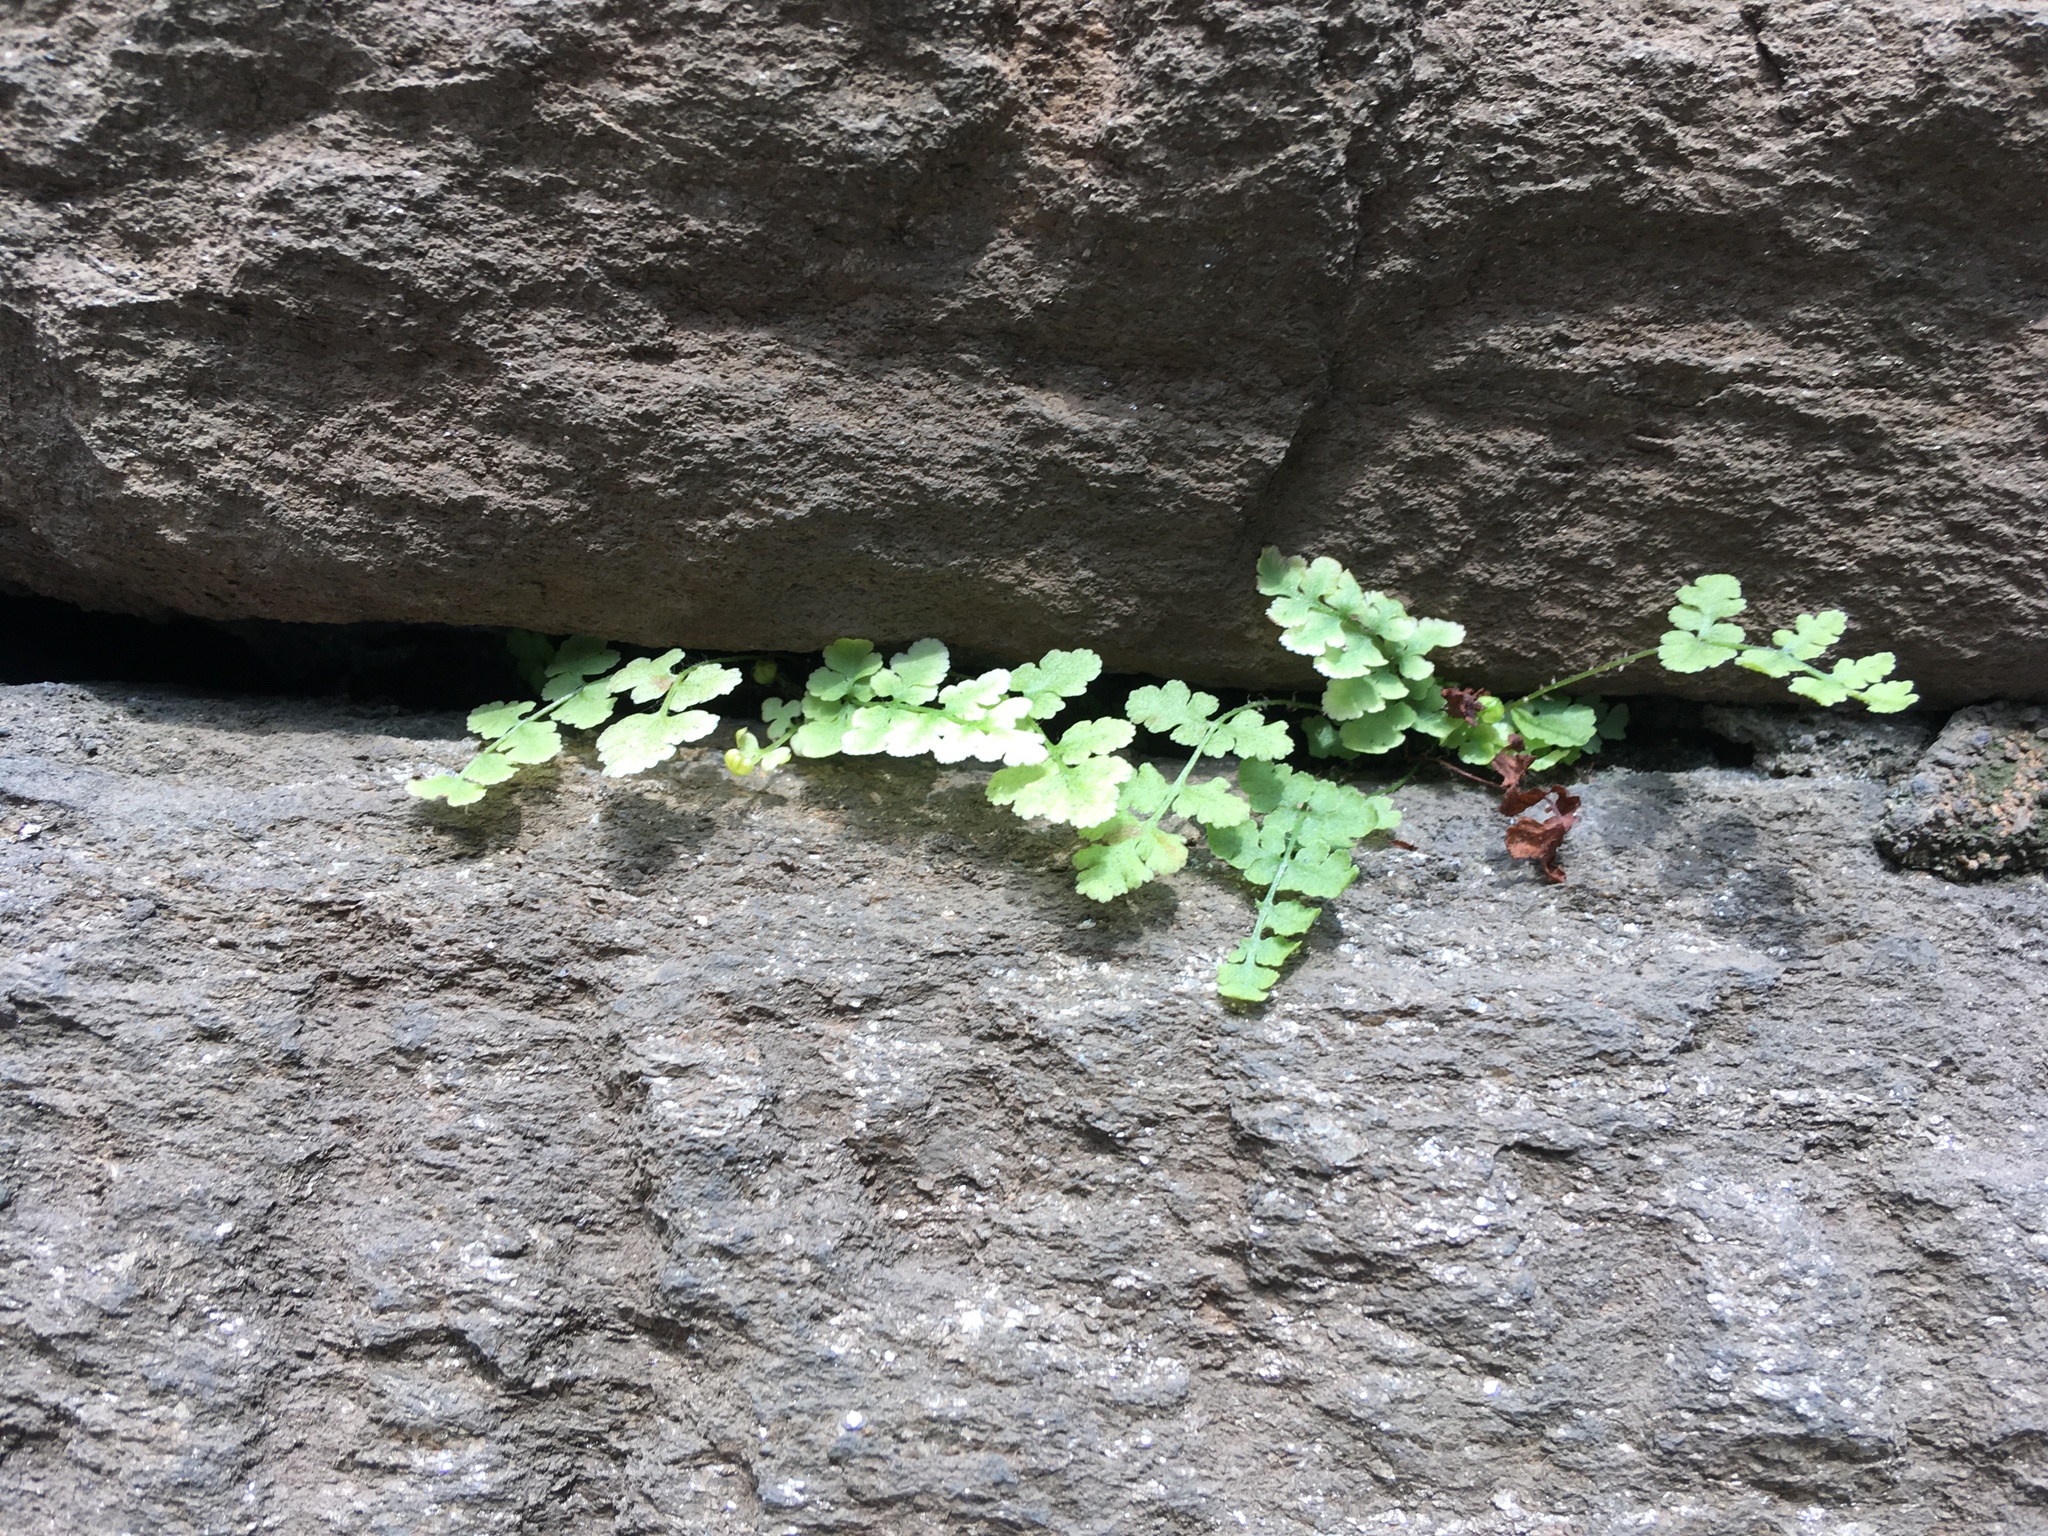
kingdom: Plantae
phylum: Tracheophyta
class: Polypodiopsida
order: Polypodiales
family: Woodsiaceae
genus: Physematium
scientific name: Physematium obtusum
